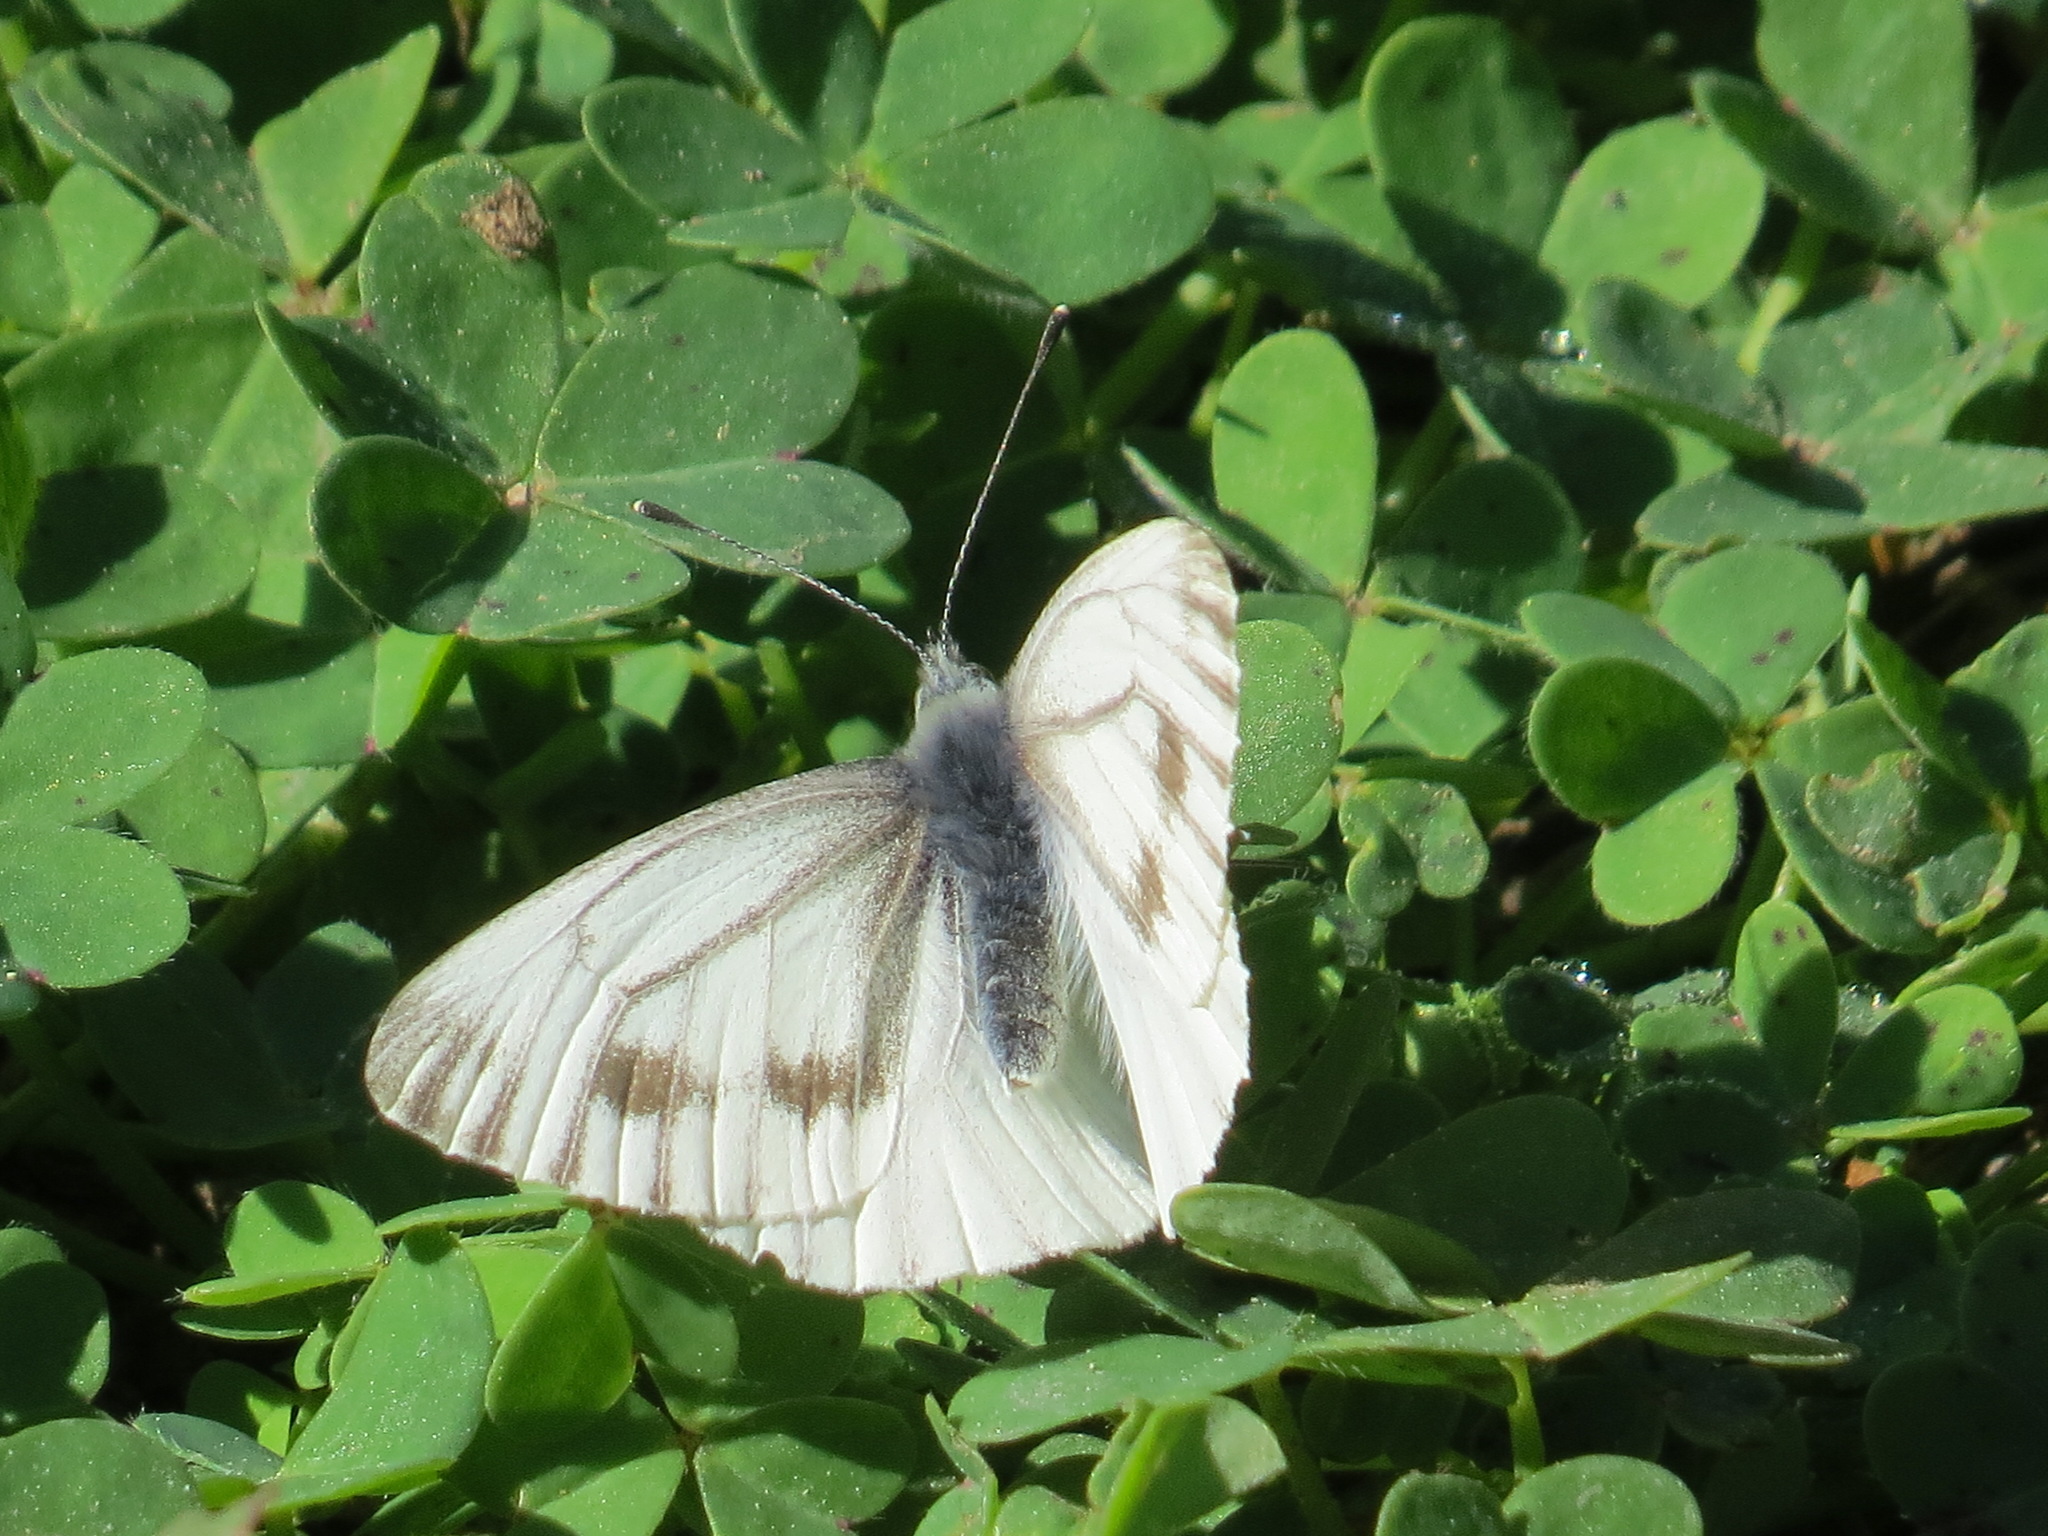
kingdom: Animalia
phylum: Arthropoda
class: Insecta
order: Lepidoptera
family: Pieridae
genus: Pieris
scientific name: Pieris marginalis
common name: Margined white
